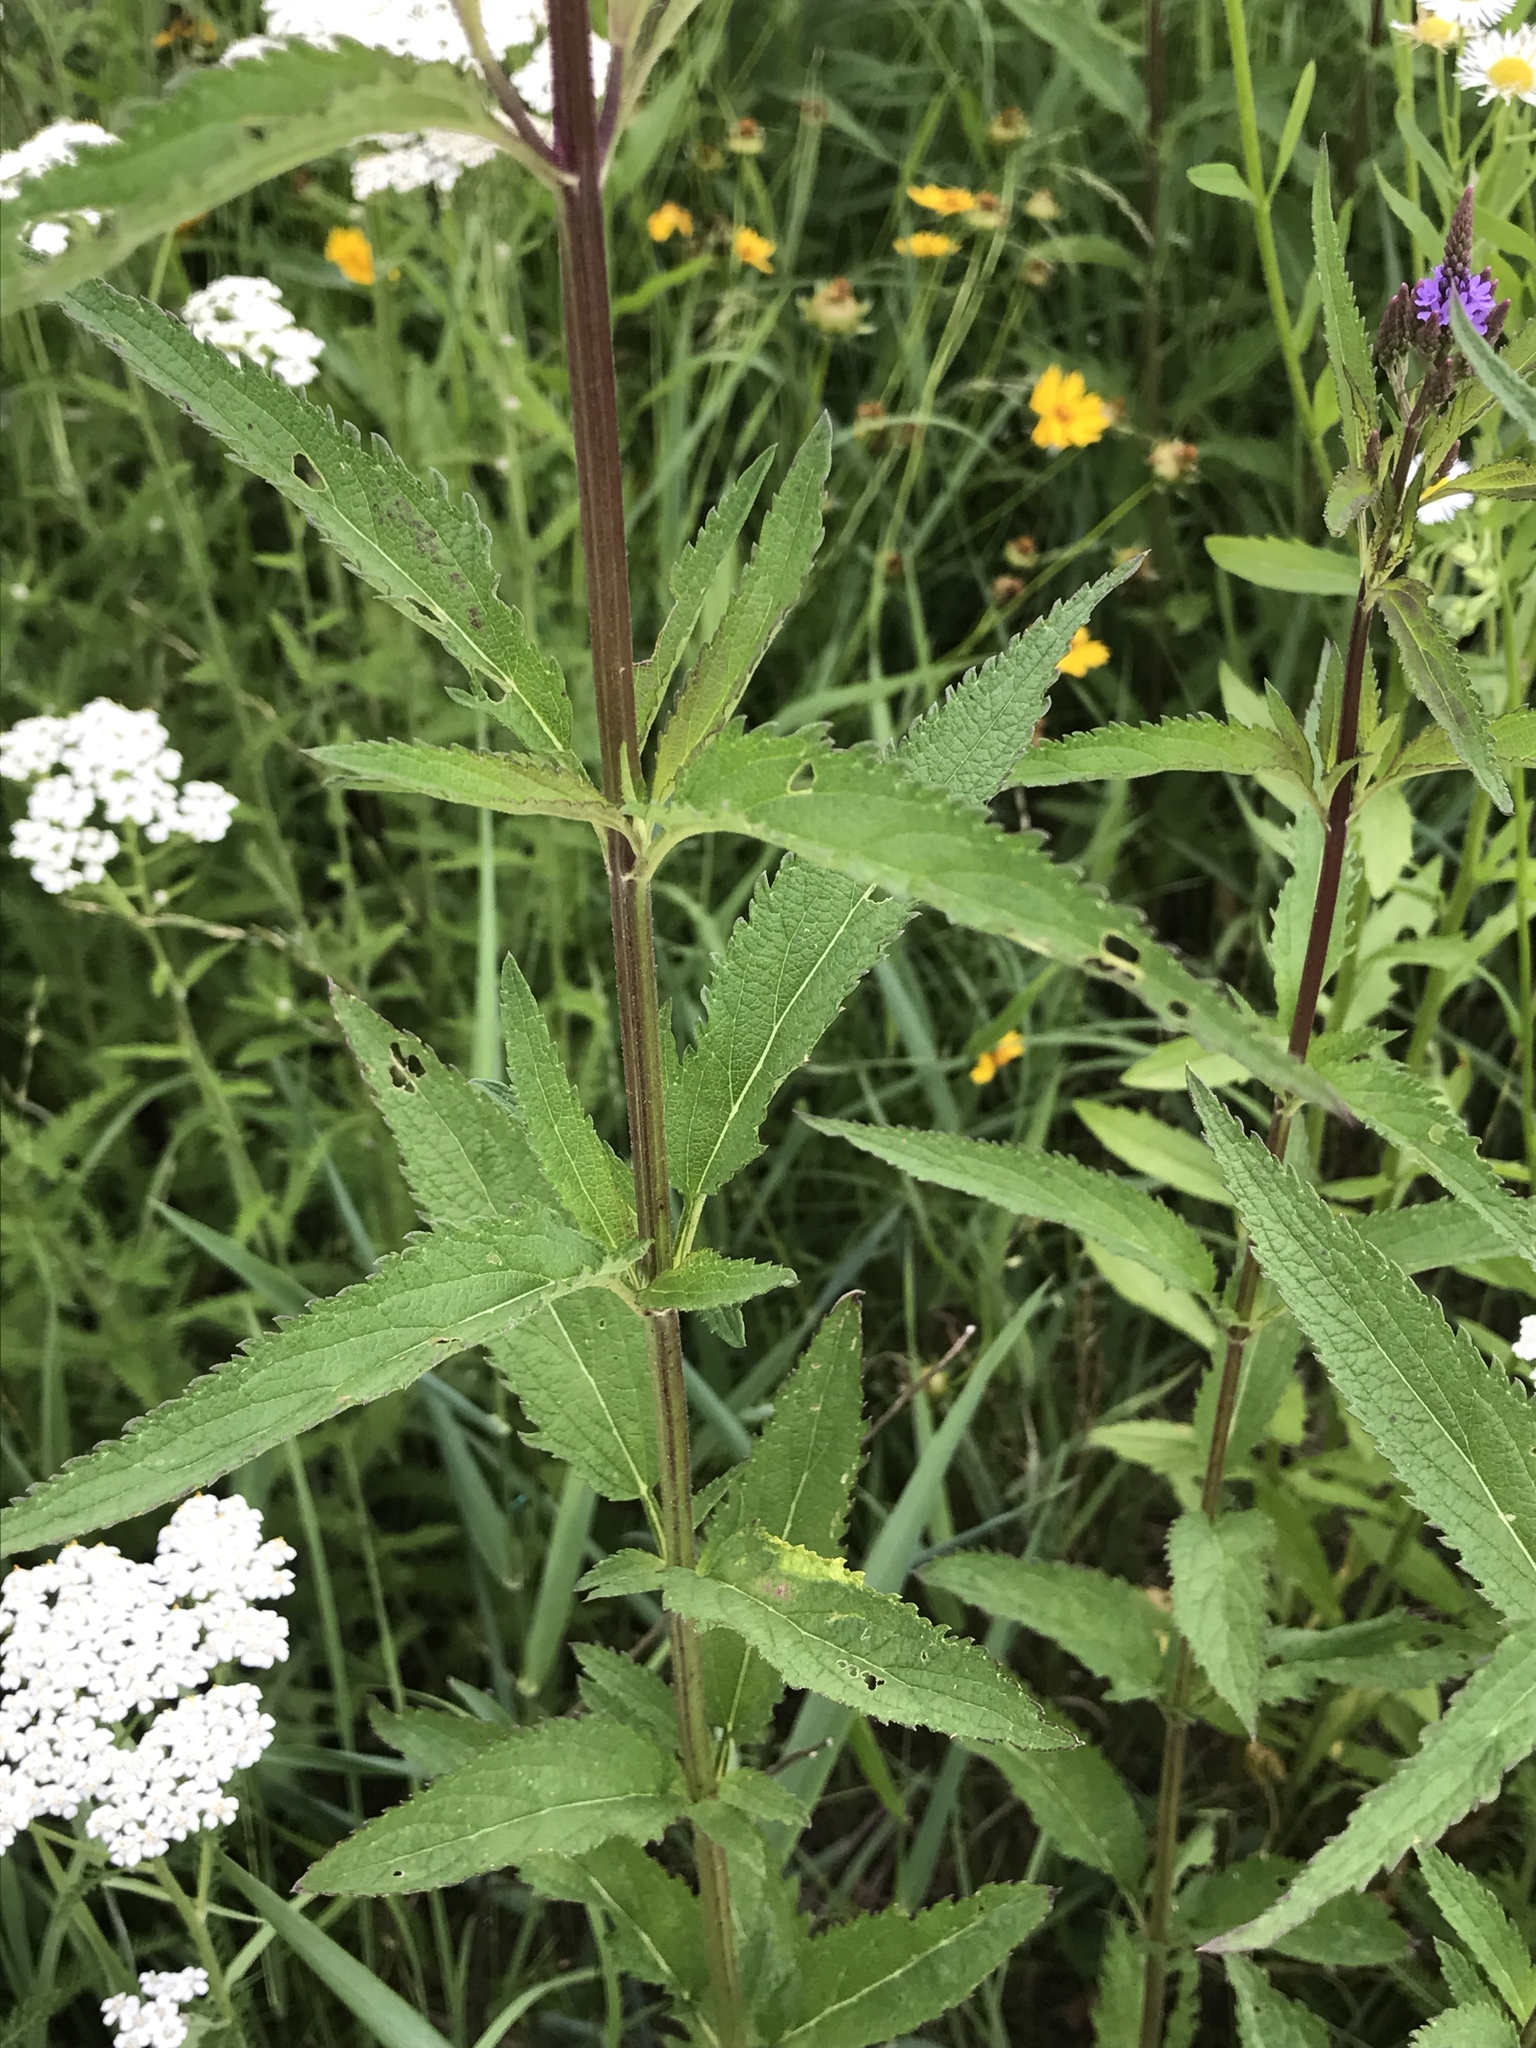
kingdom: Plantae
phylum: Tracheophyta
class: Magnoliopsida
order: Lamiales
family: Verbenaceae
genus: Verbena
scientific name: Verbena hastata
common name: American blue vervain
